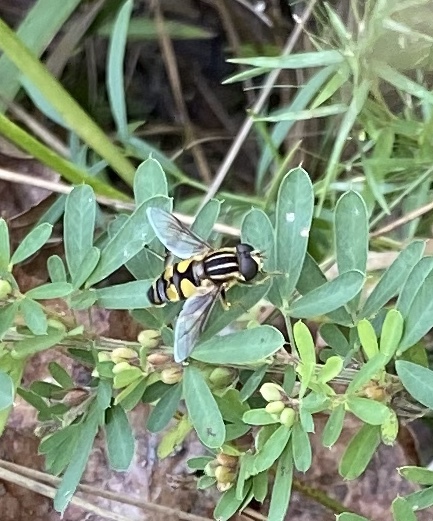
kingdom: Animalia
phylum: Arthropoda
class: Insecta
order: Diptera
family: Syrphidae
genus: Helophilus
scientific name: Helophilus fasciatus
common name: Narrow-headed marsh fly
